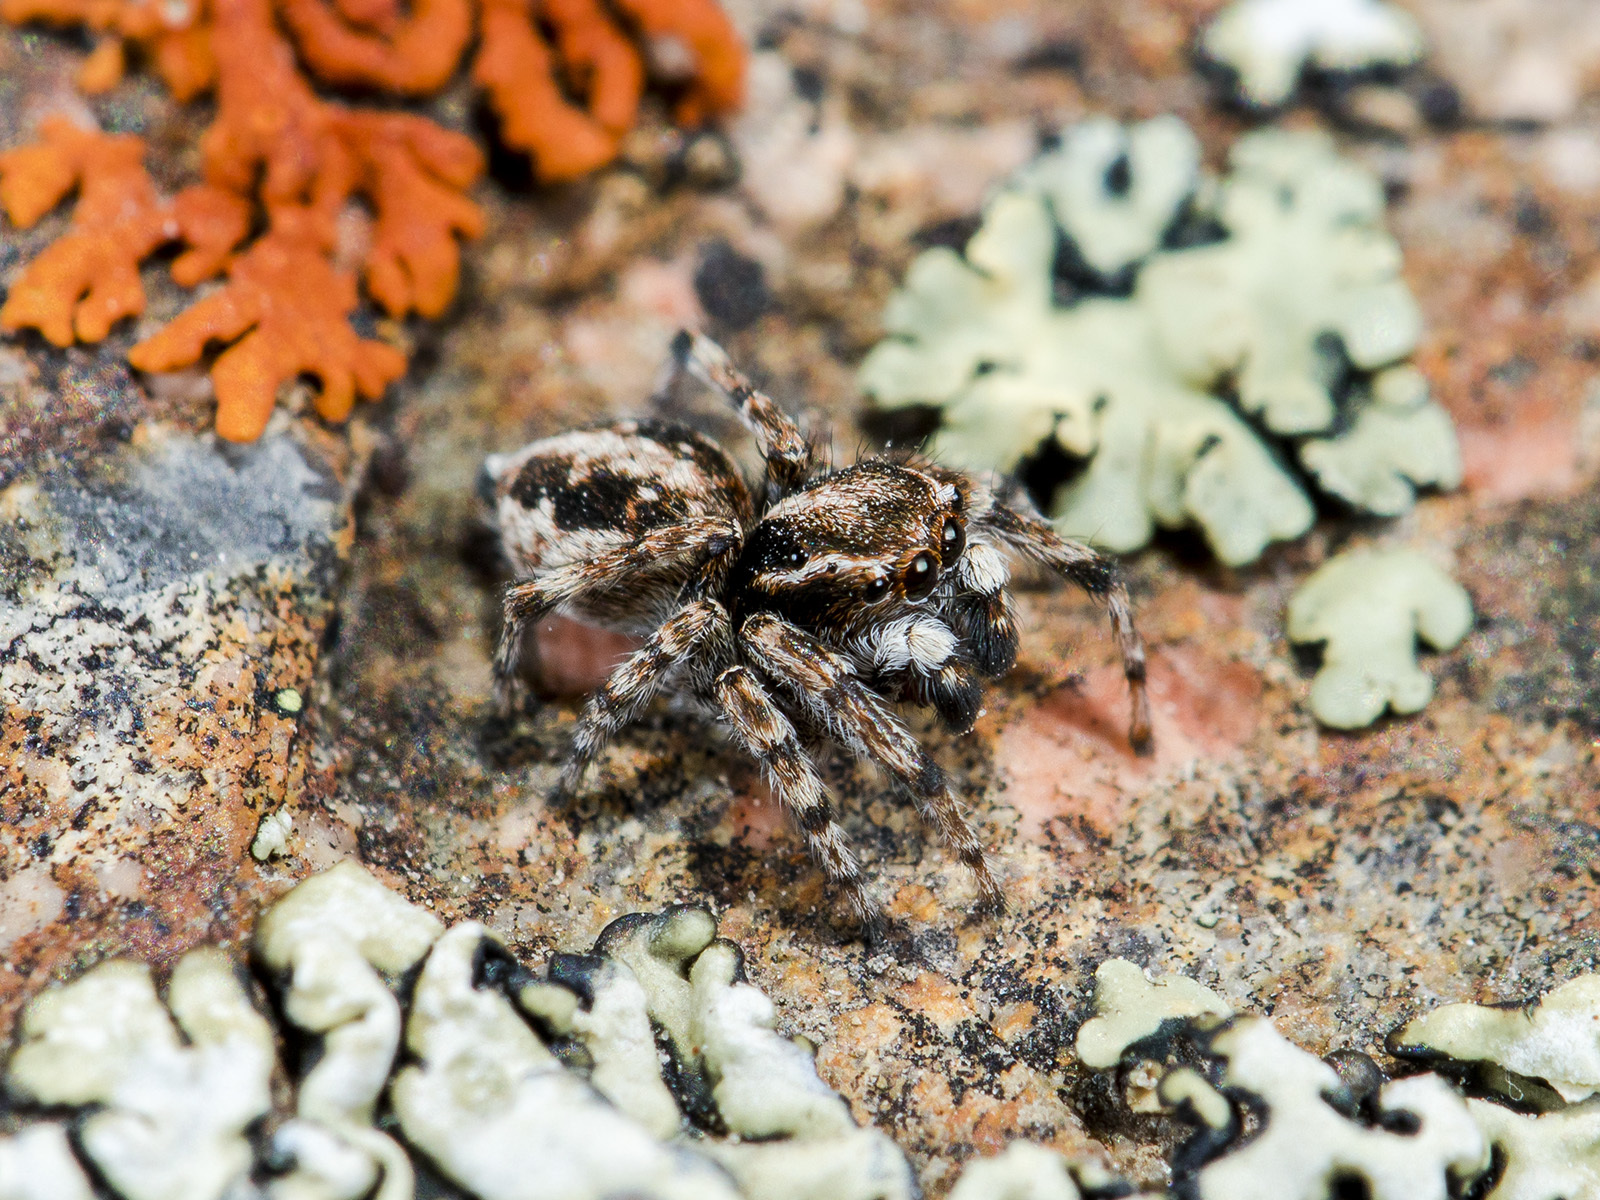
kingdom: Animalia
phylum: Arthropoda
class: Arachnida
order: Araneae
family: Salticidae
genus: Attulus
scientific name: Attulus distinguendus
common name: Distinguished jumper
